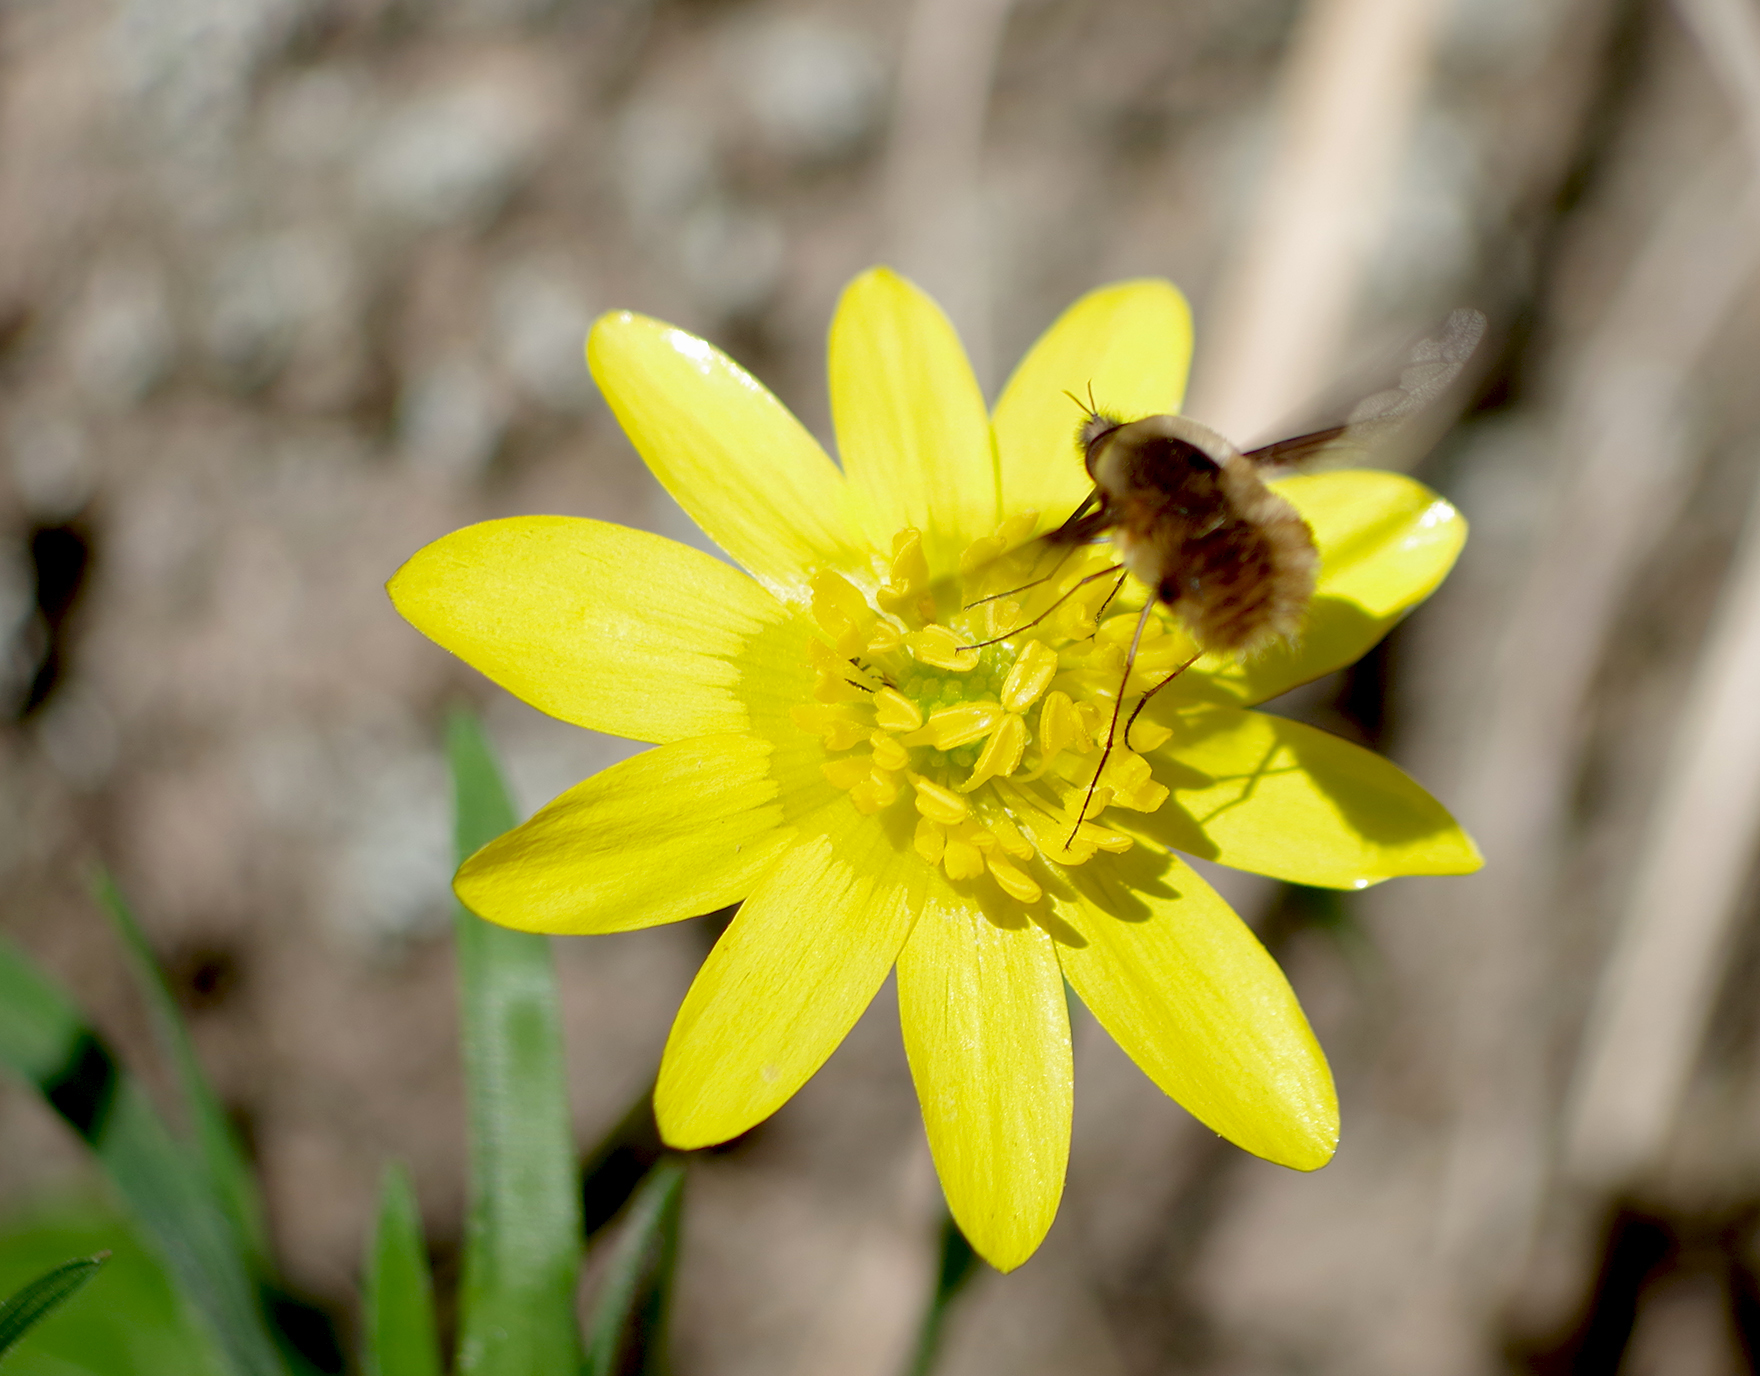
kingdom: Animalia
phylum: Arthropoda
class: Insecta
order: Diptera
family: Bombyliidae
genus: Bombylius
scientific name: Bombylius major
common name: Bee fly
